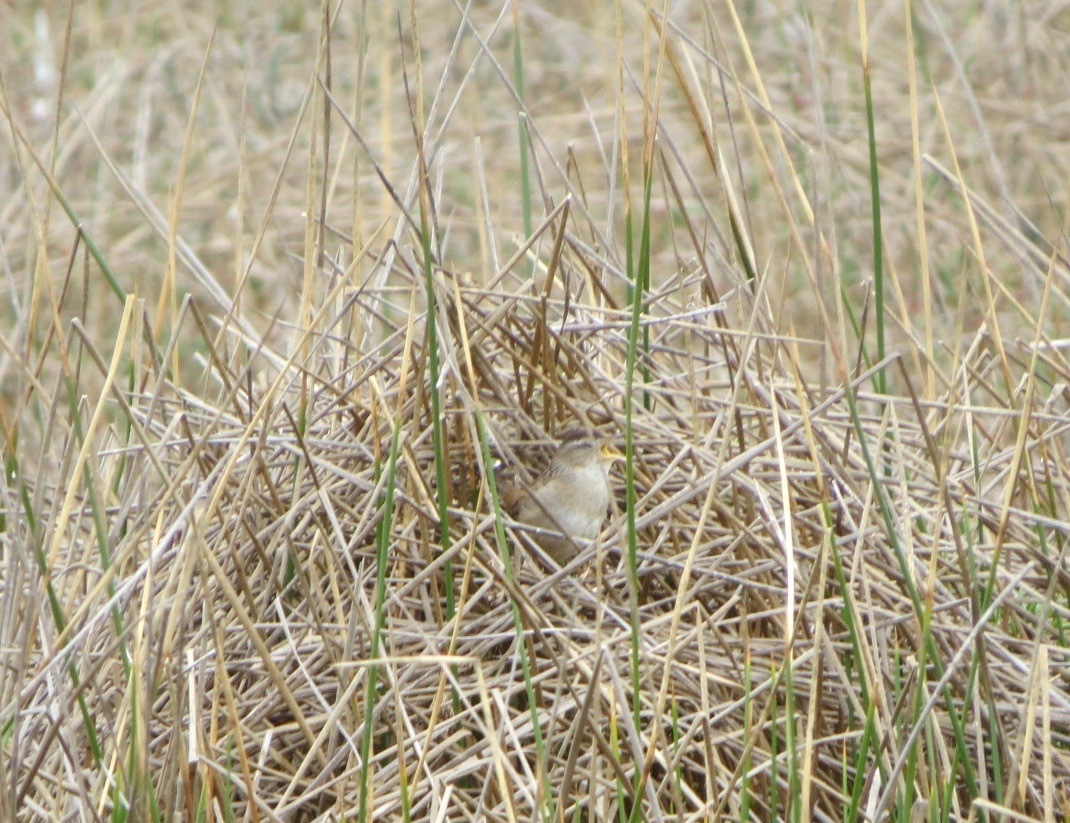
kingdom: Animalia
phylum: Chordata
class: Aves
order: Passeriformes
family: Troglodytidae
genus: Cistothorus
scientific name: Cistothorus palustris
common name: Marsh wren
